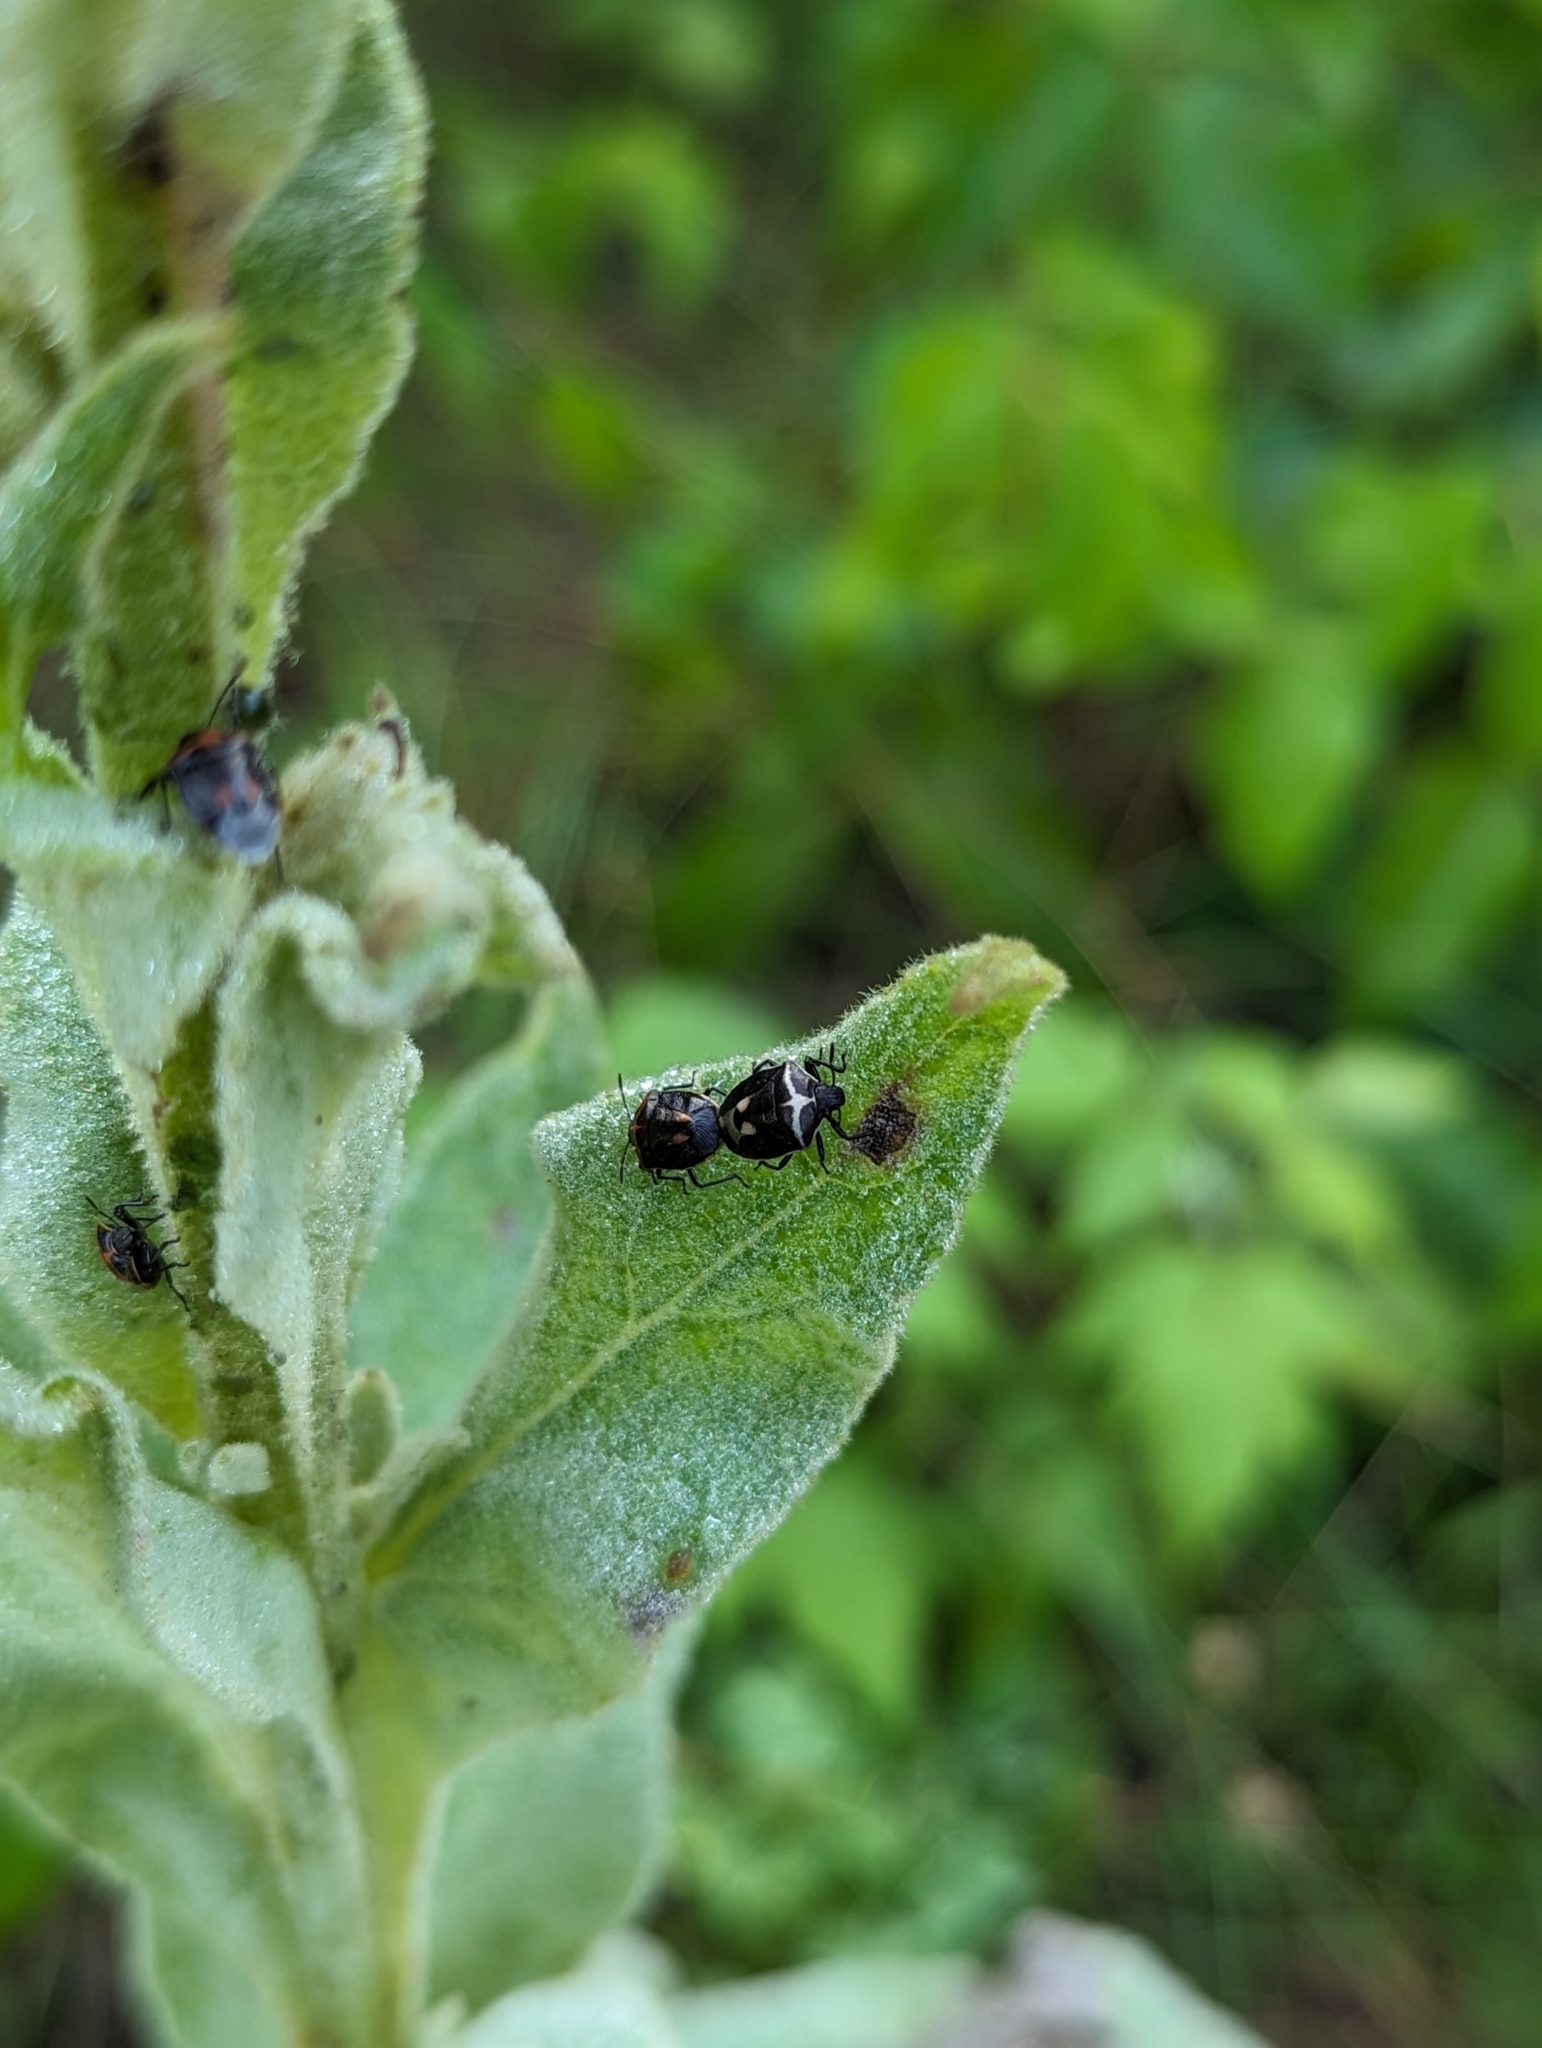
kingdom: Animalia
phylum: Arthropoda
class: Insecta
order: Hemiptera
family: Pentatomidae
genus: Cosmopepla
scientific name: Cosmopepla lintneriana
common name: Twice-stabbed stink bug
